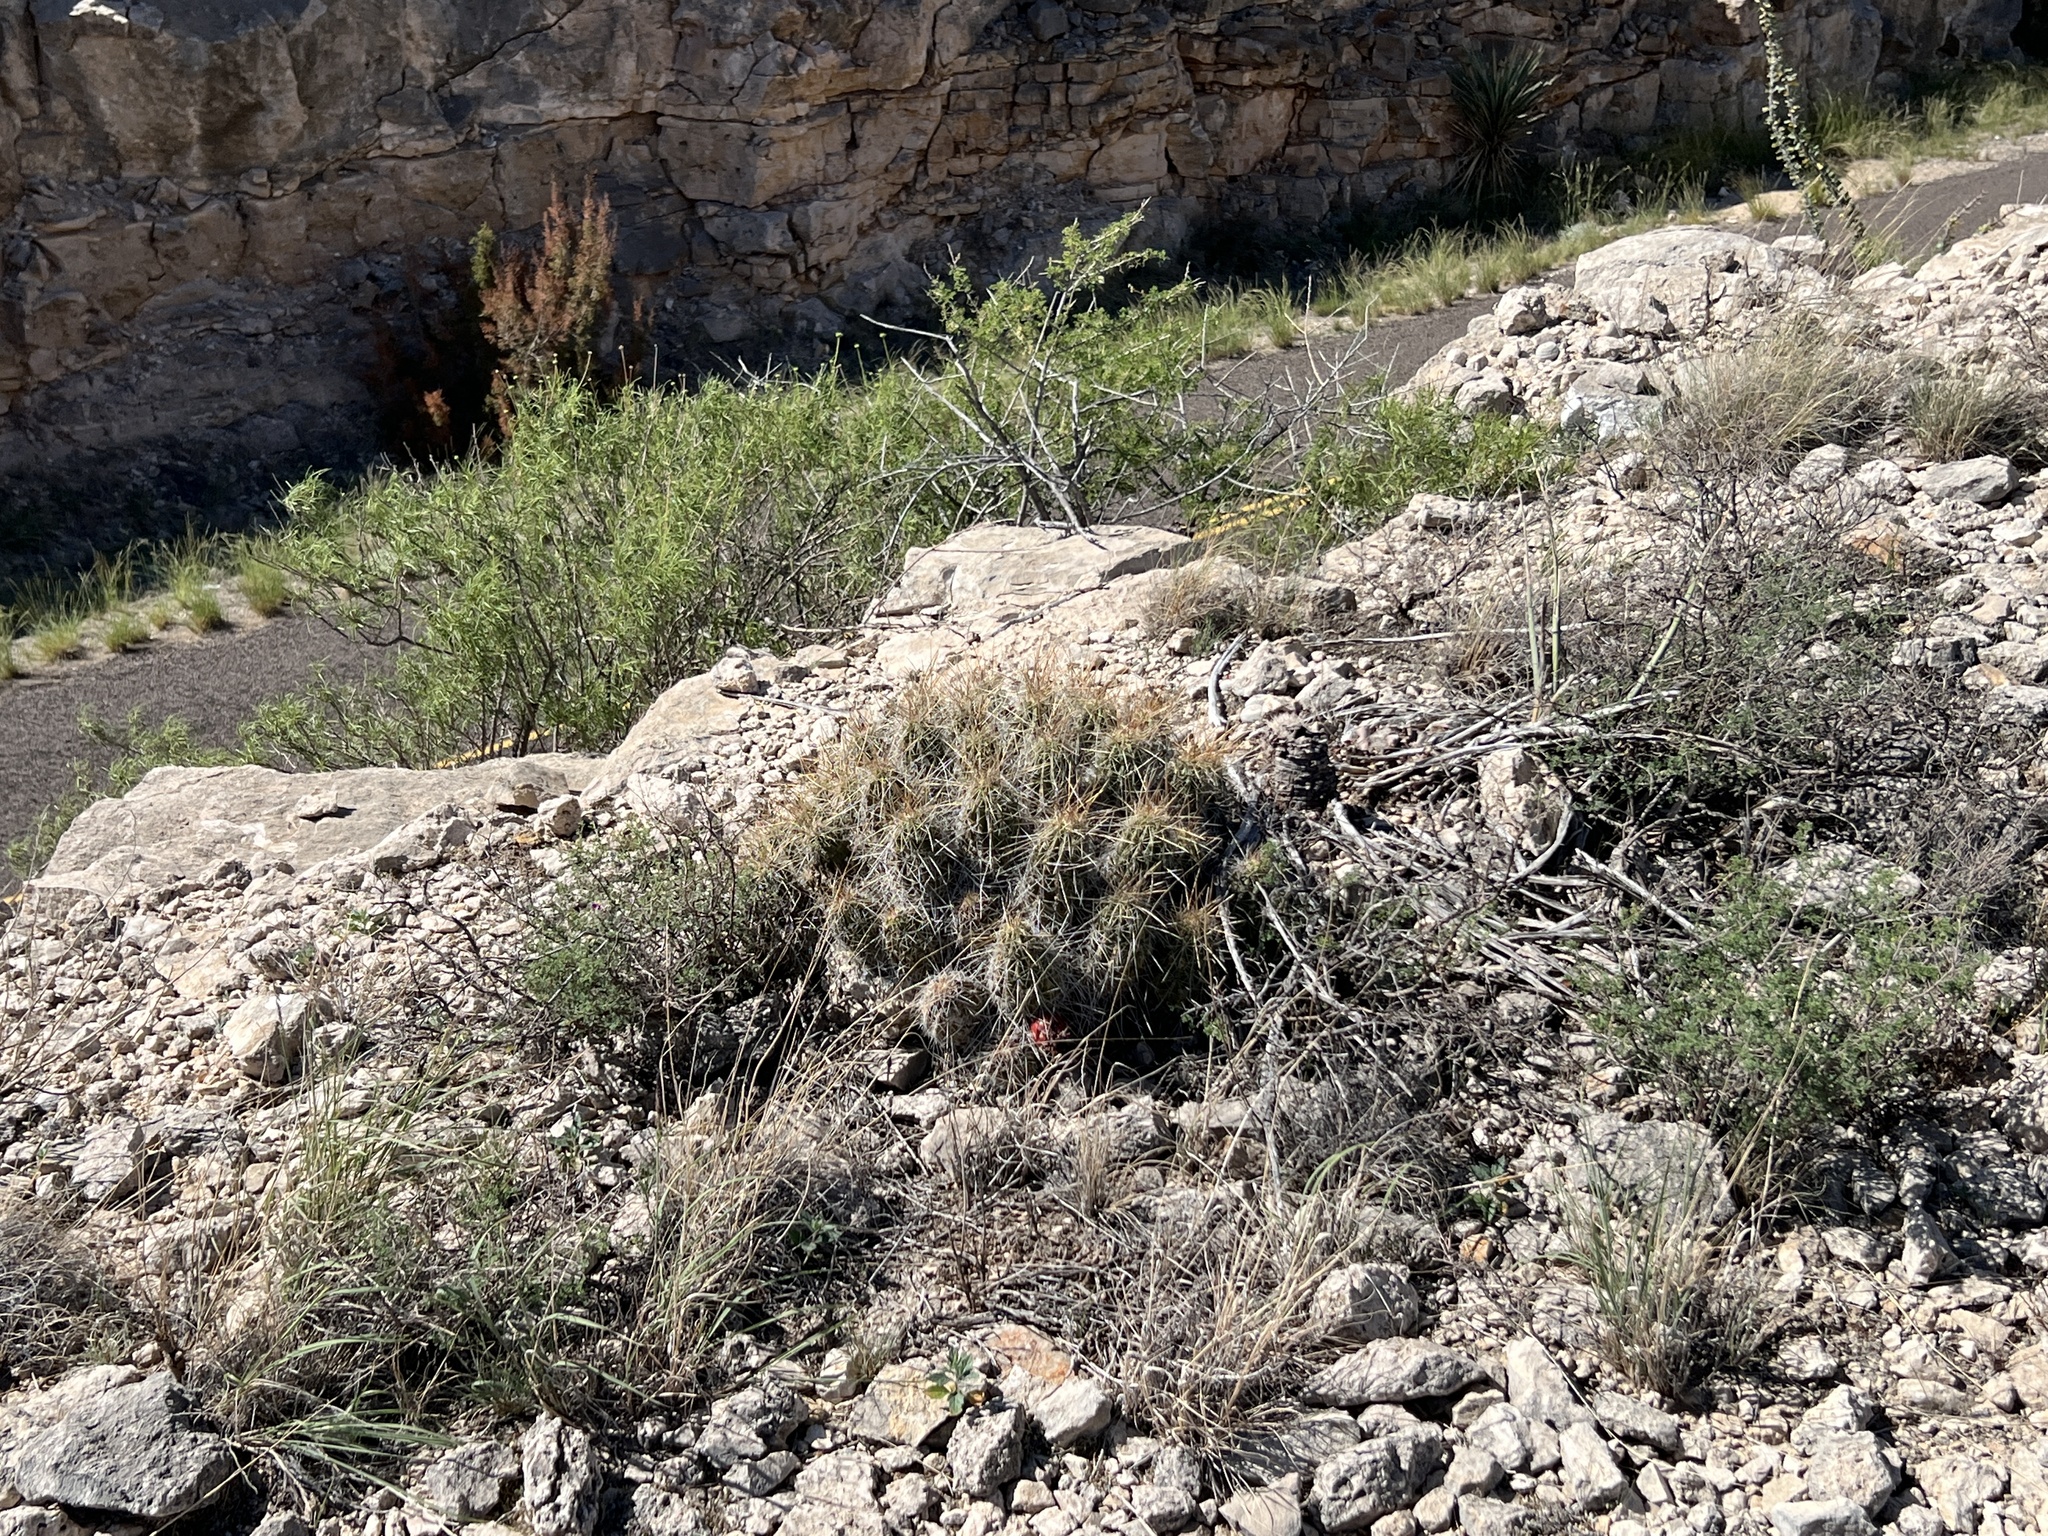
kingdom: Plantae
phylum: Tracheophyta
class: Magnoliopsida
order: Caryophyllales
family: Cactaceae
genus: Echinocereus
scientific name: Echinocereus stramineus
